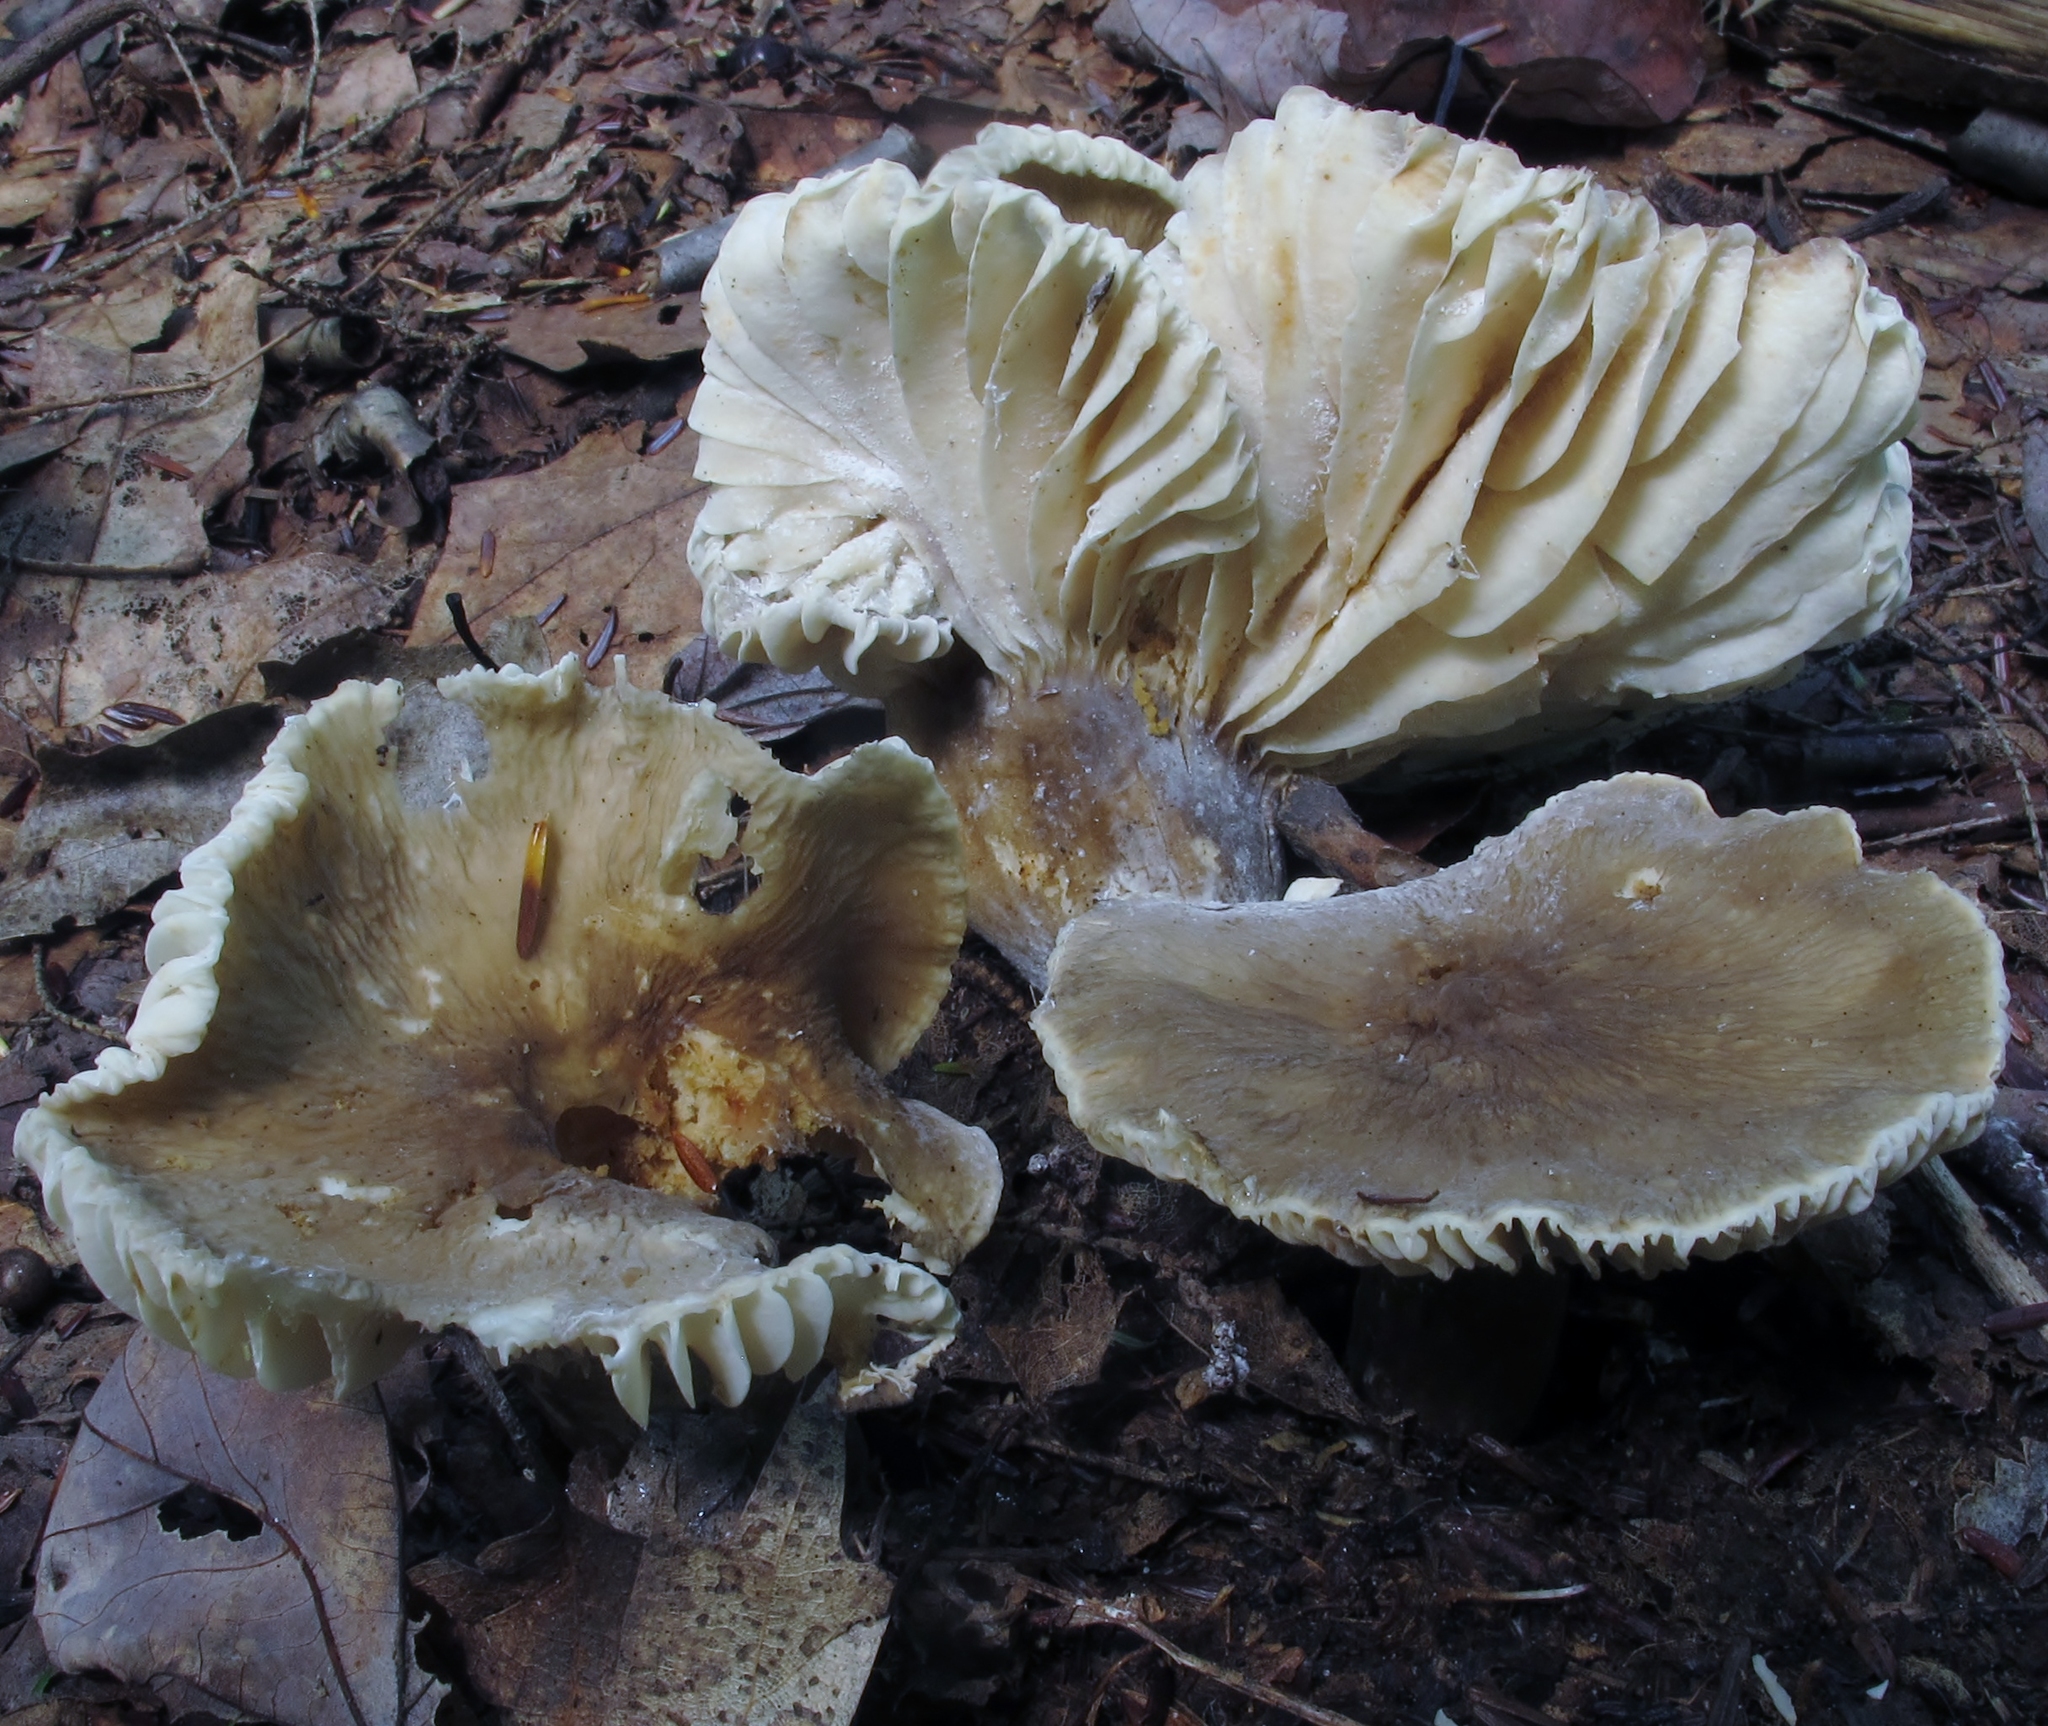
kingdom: Fungi
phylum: Basidiomycota
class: Agaricomycetes
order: Russulales
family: Russulaceae
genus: Lactarius
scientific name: Lactarius gerardii
